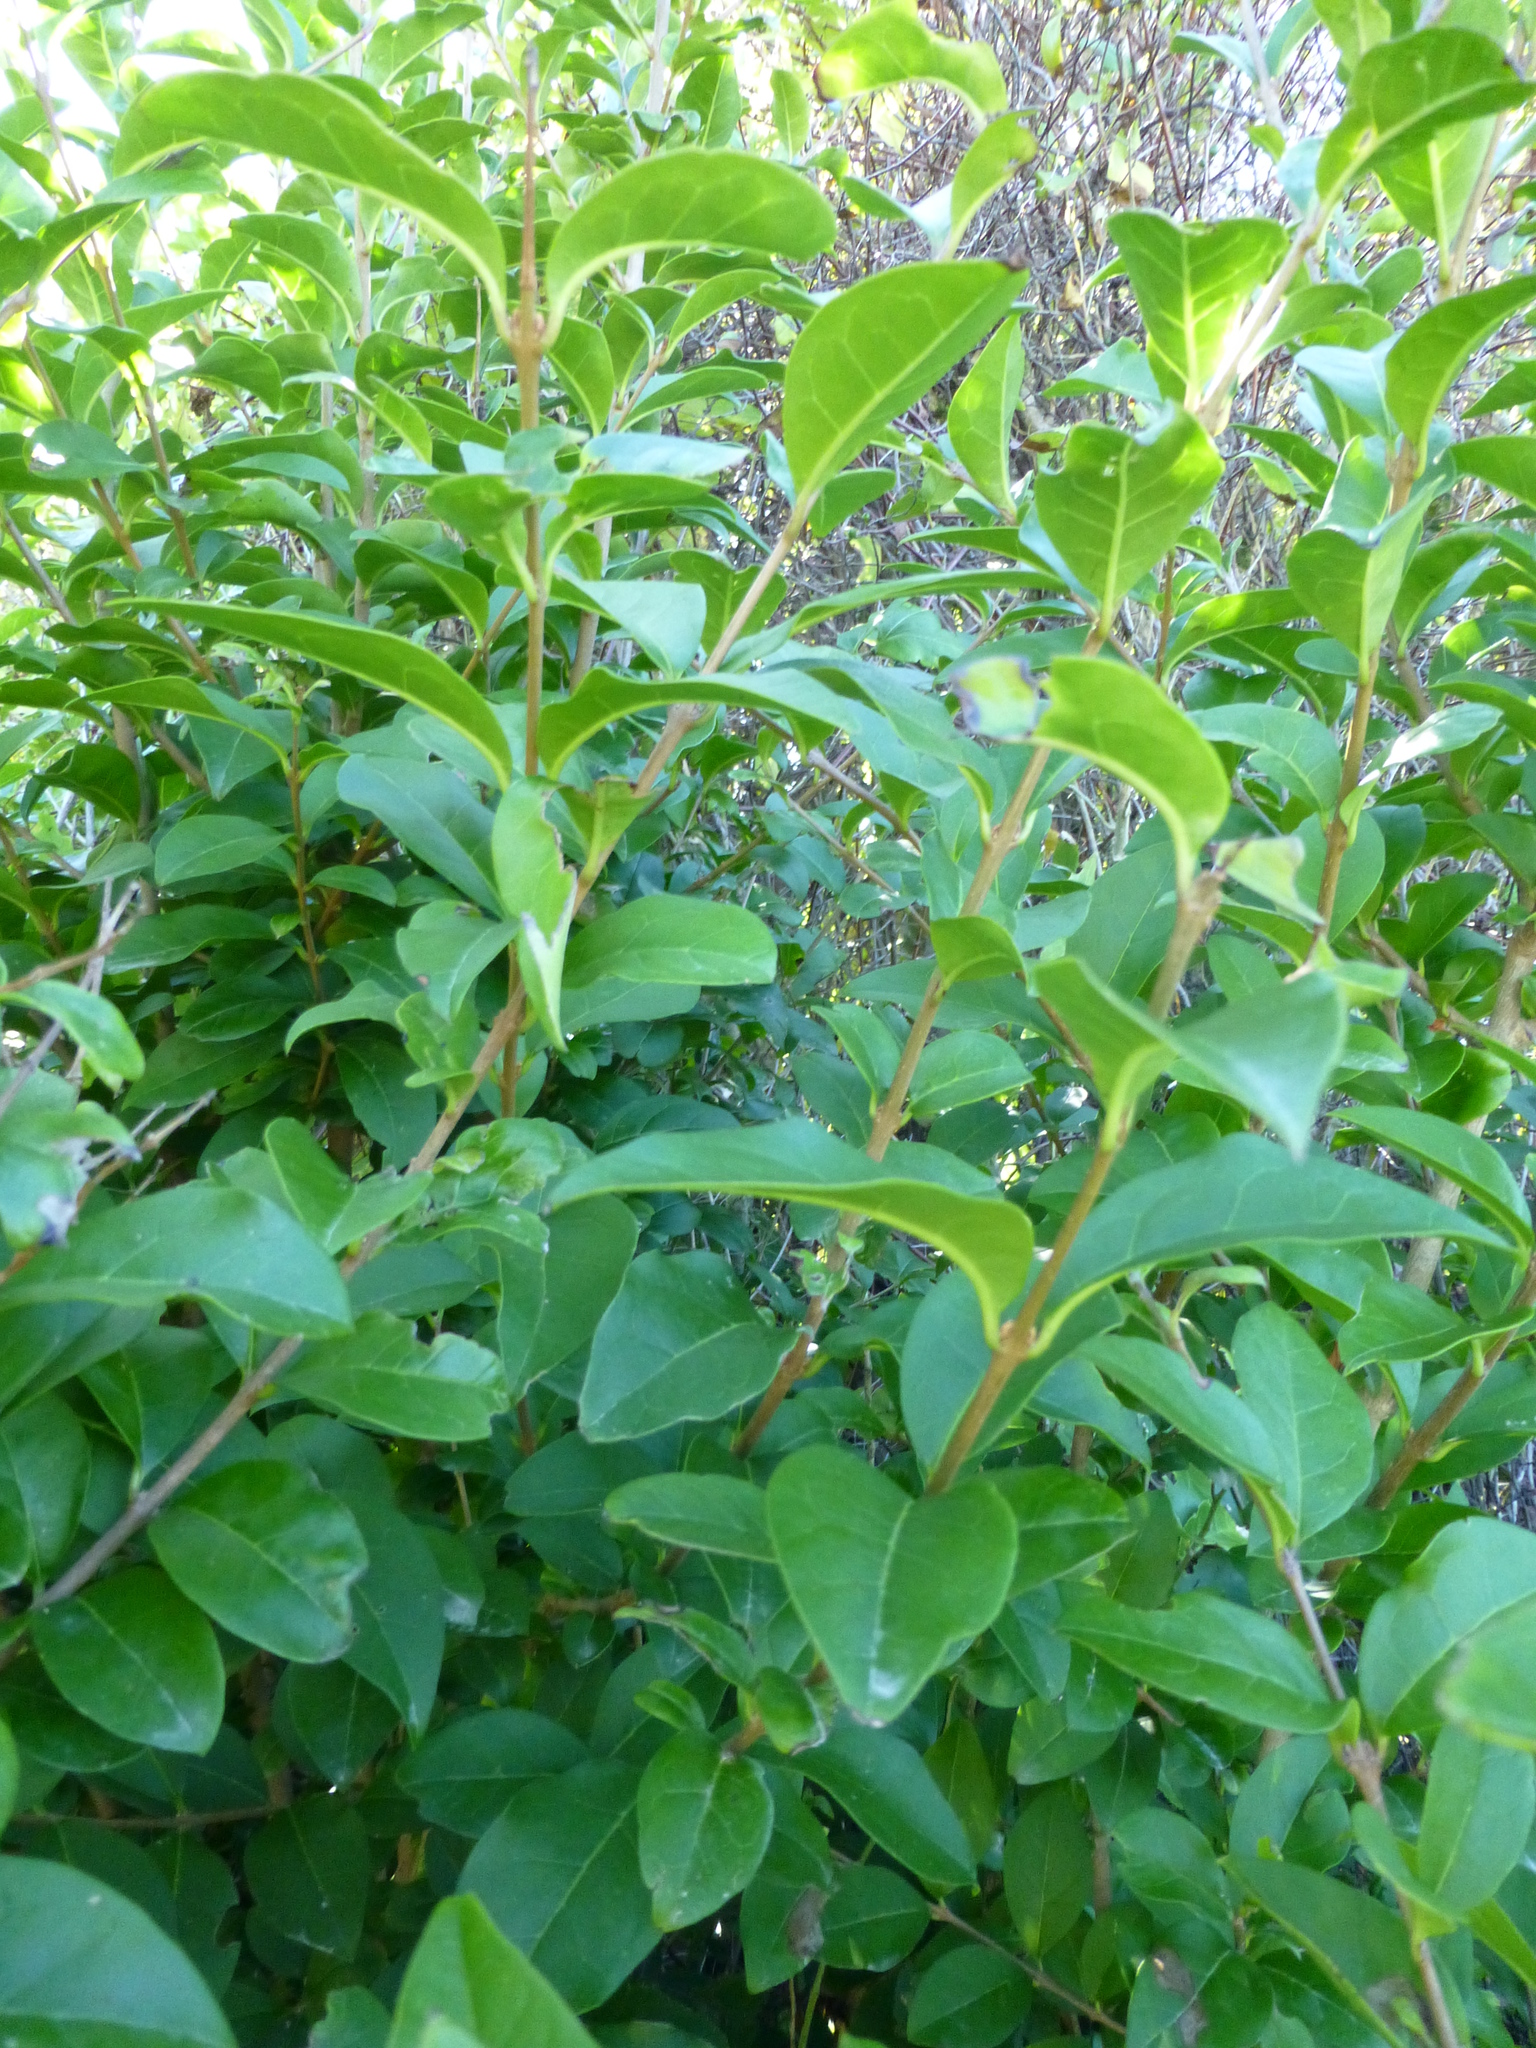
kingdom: Plantae
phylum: Tracheophyta
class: Magnoliopsida
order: Lamiales
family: Oleaceae
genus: Ligustrum
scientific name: Ligustrum ovalifolium
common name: California privet
